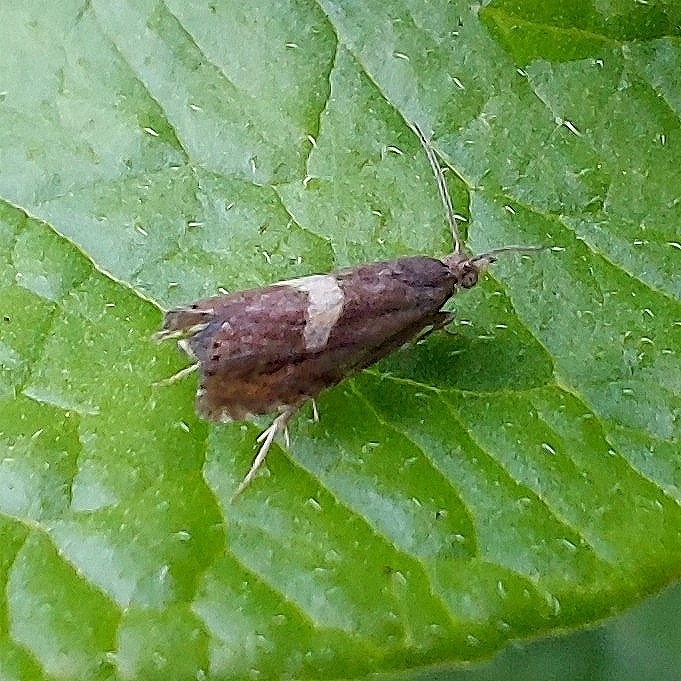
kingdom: Animalia
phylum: Arthropoda
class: Insecta
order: Lepidoptera
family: Tortricidae
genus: Dichrorampha
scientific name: Dichrorampha petiverella
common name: Common drill
